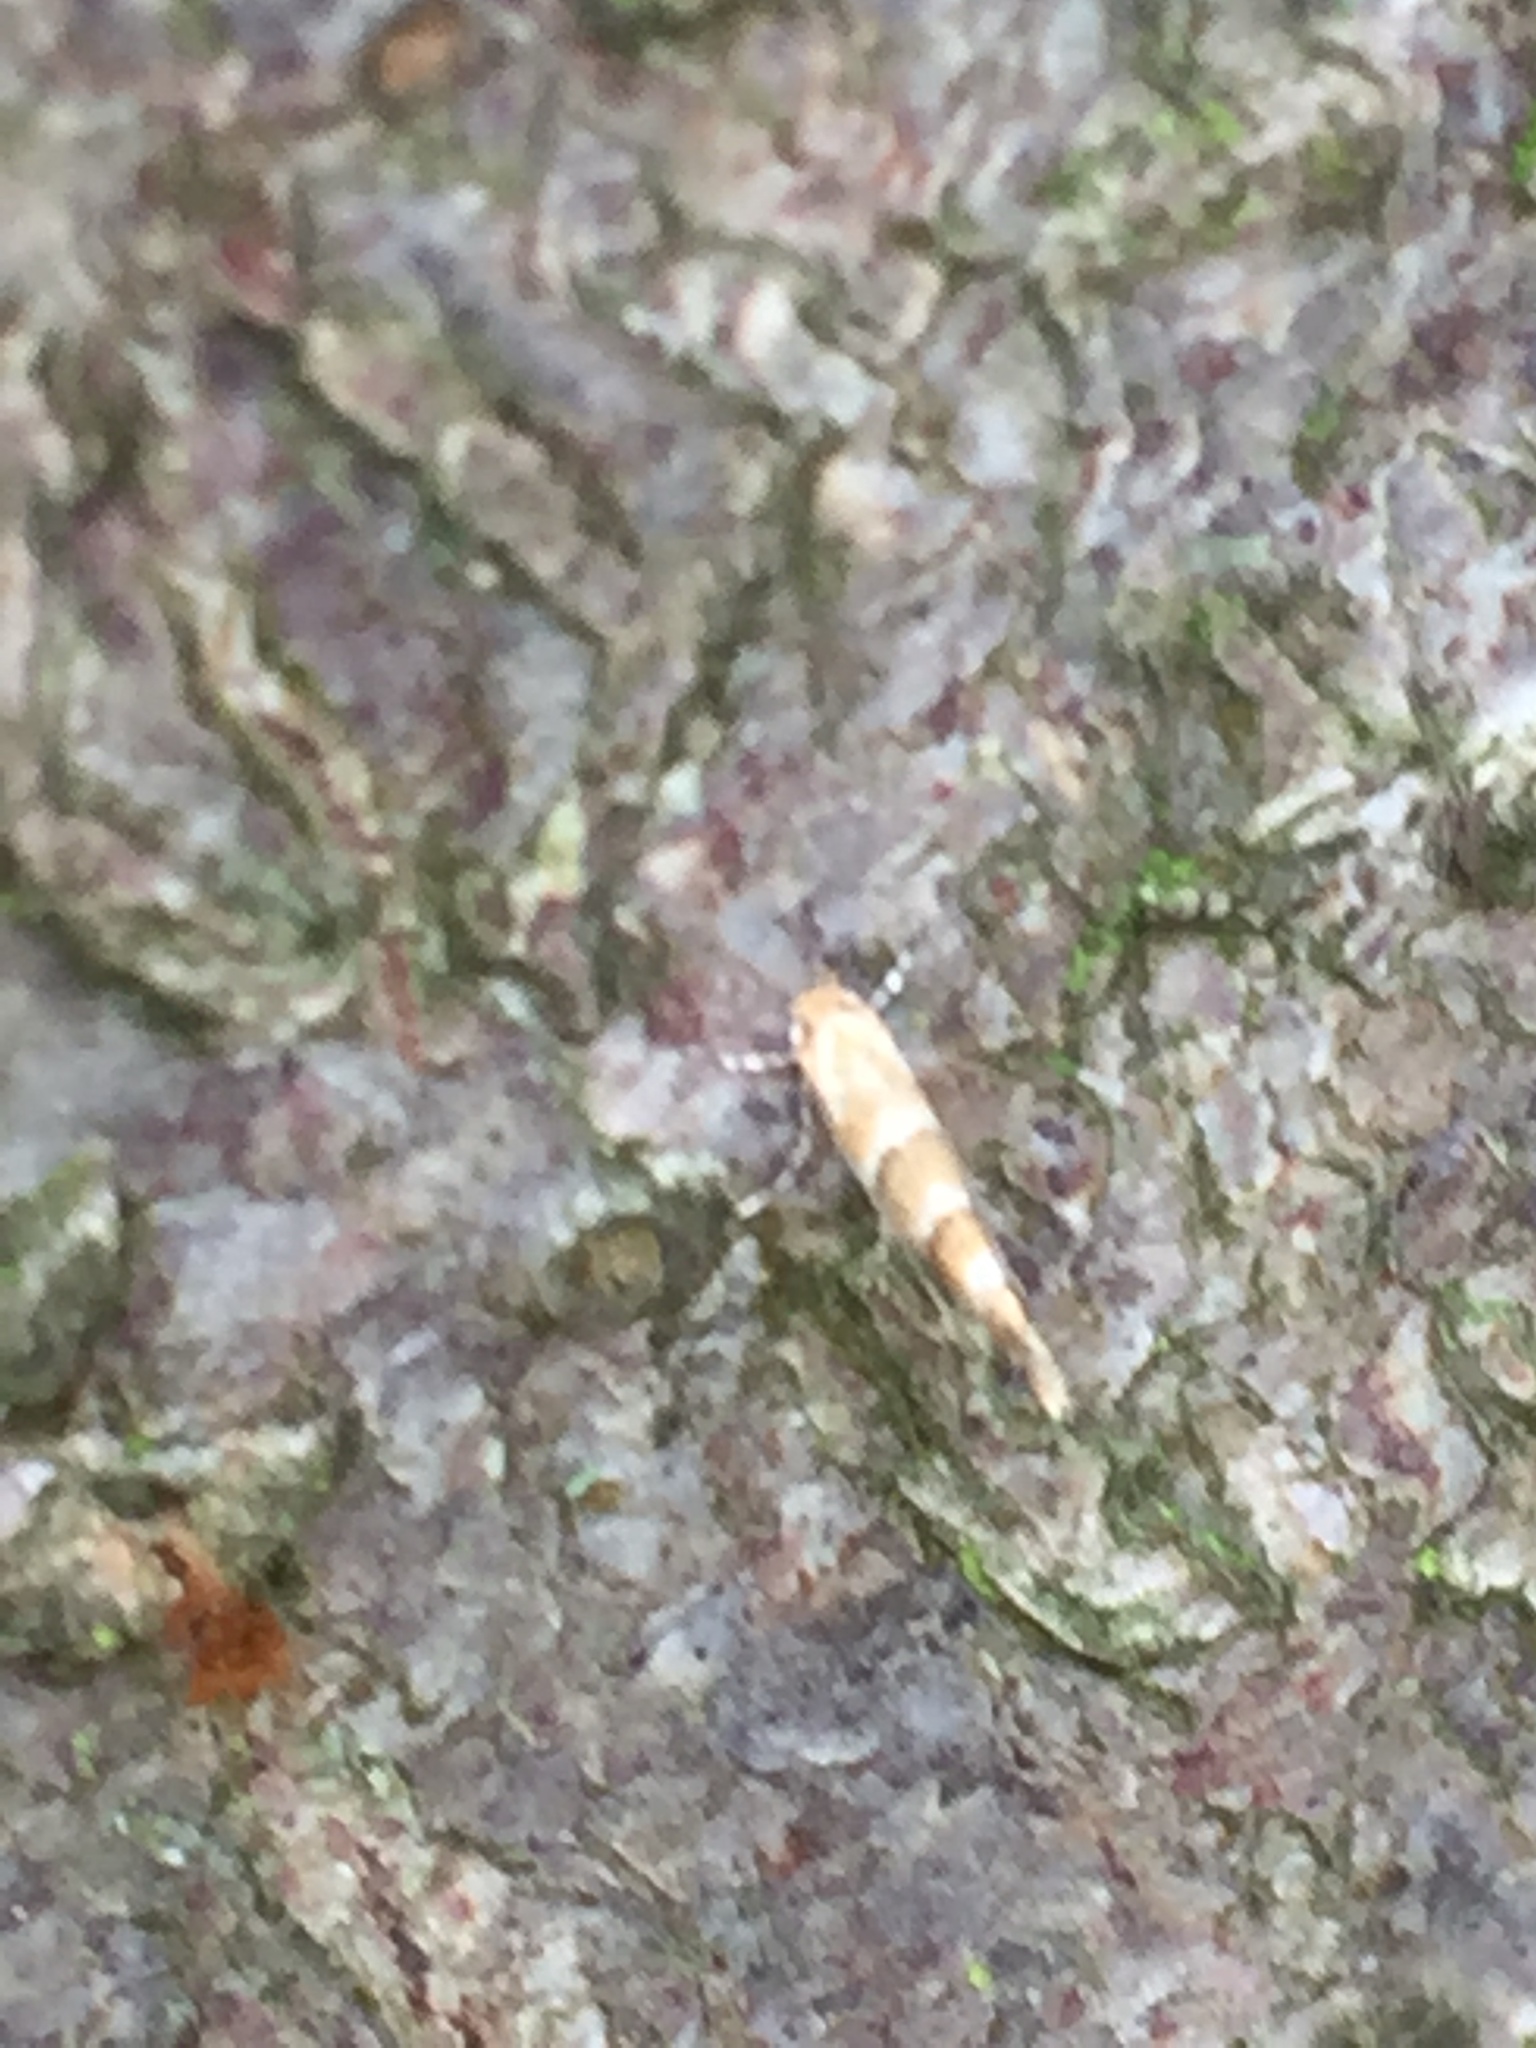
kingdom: Animalia
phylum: Arthropoda
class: Insecta
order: Lepidoptera
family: Gracillariidae
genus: Cameraria
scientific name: Cameraria ohridella
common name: Horse-chestnut leaf-miner
